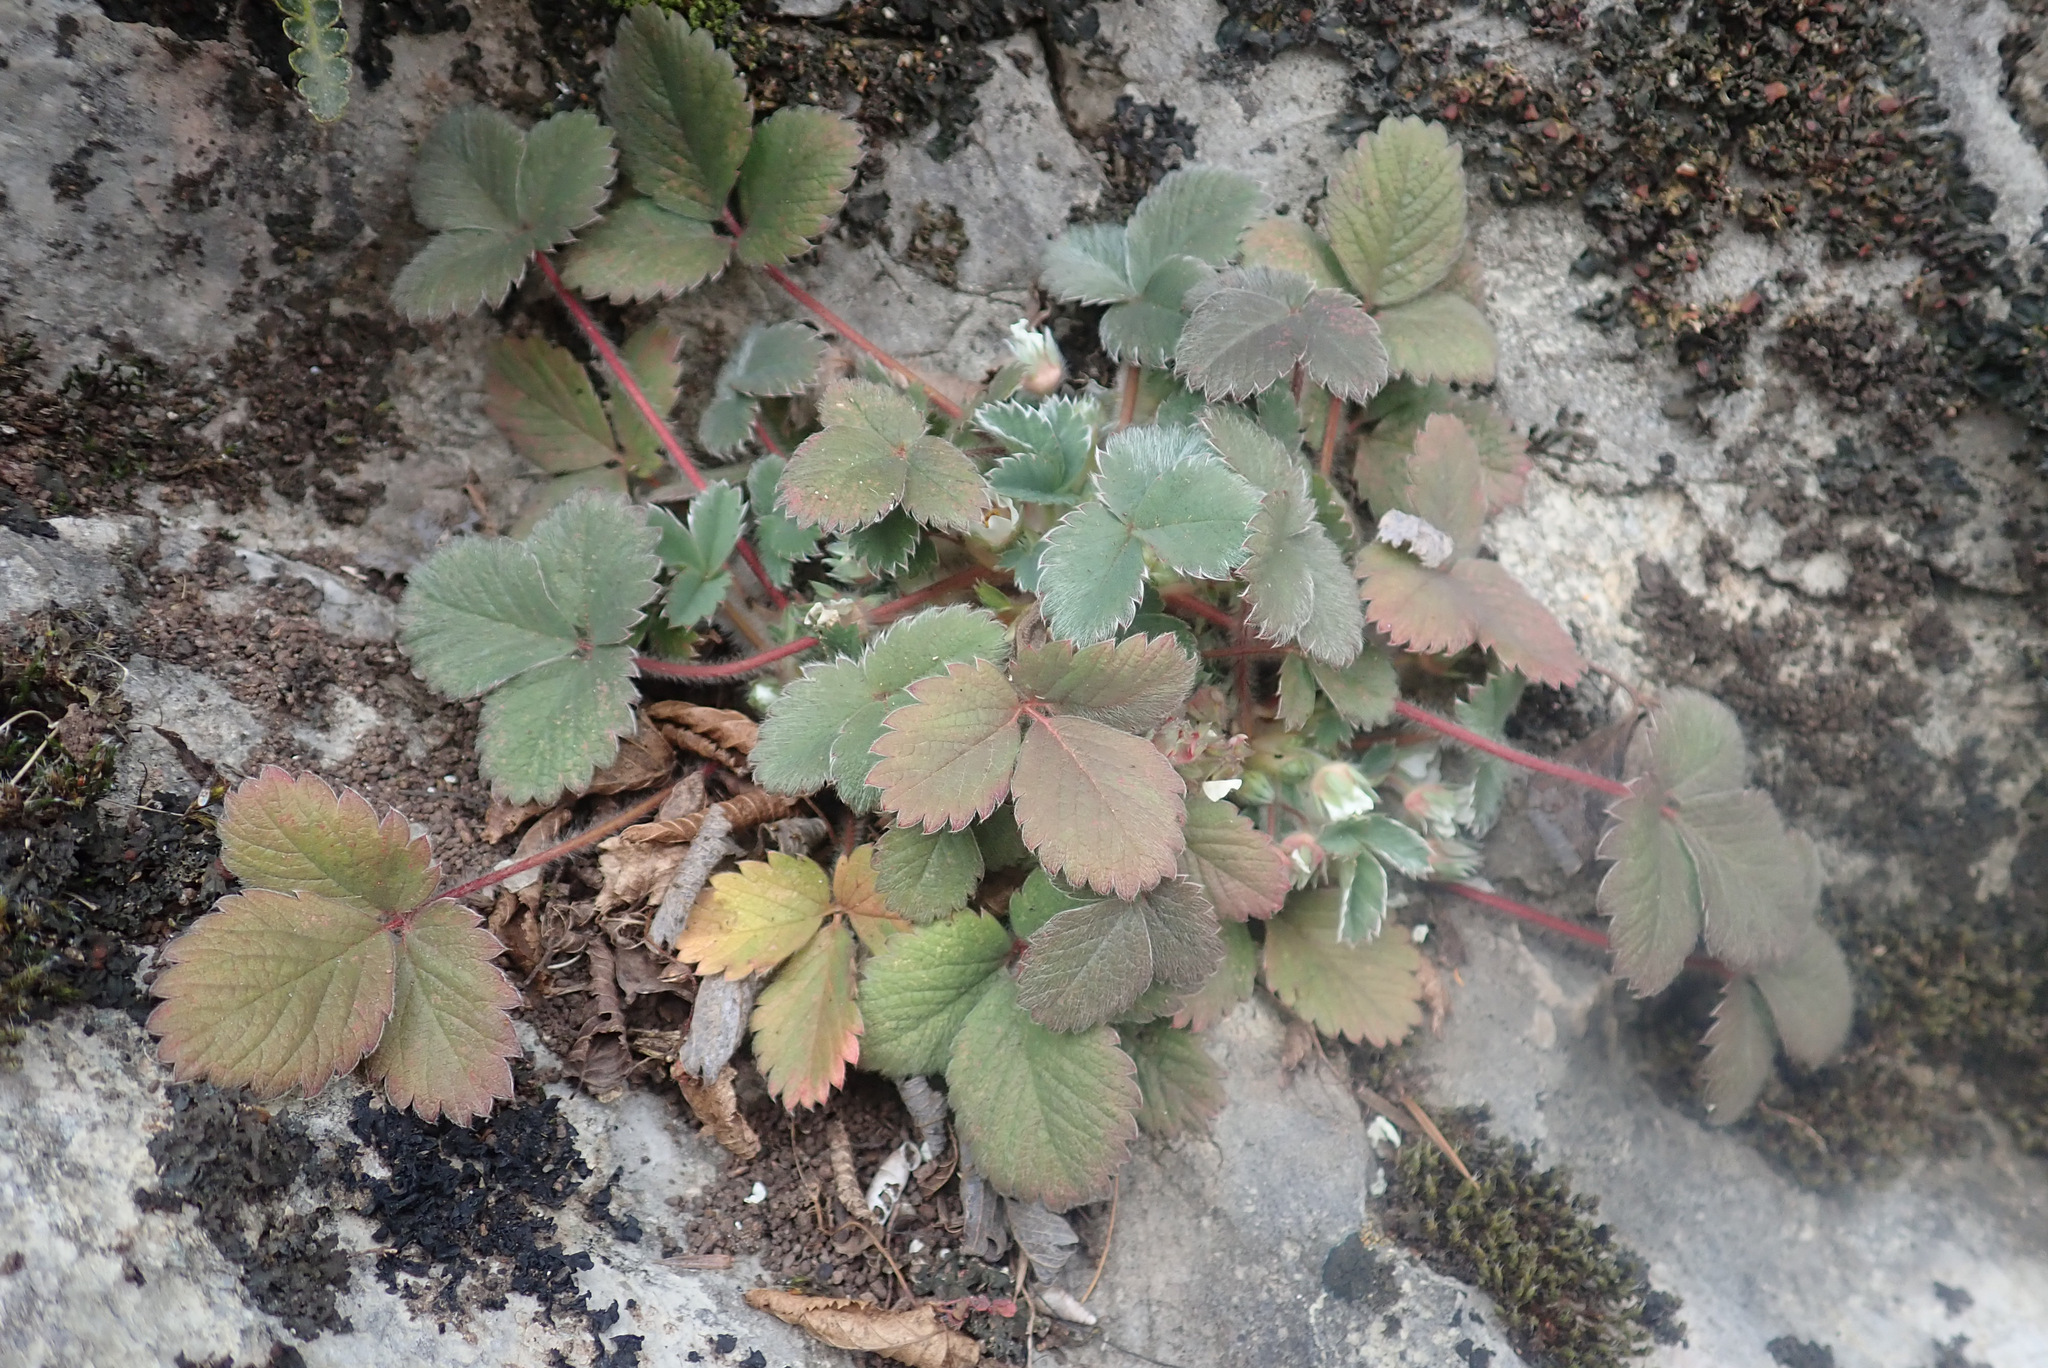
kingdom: Plantae
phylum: Tracheophyta
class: Magnoliopsida
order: Rosales
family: Rosaceae
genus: Potentilla
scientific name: Potentilla micrantha
